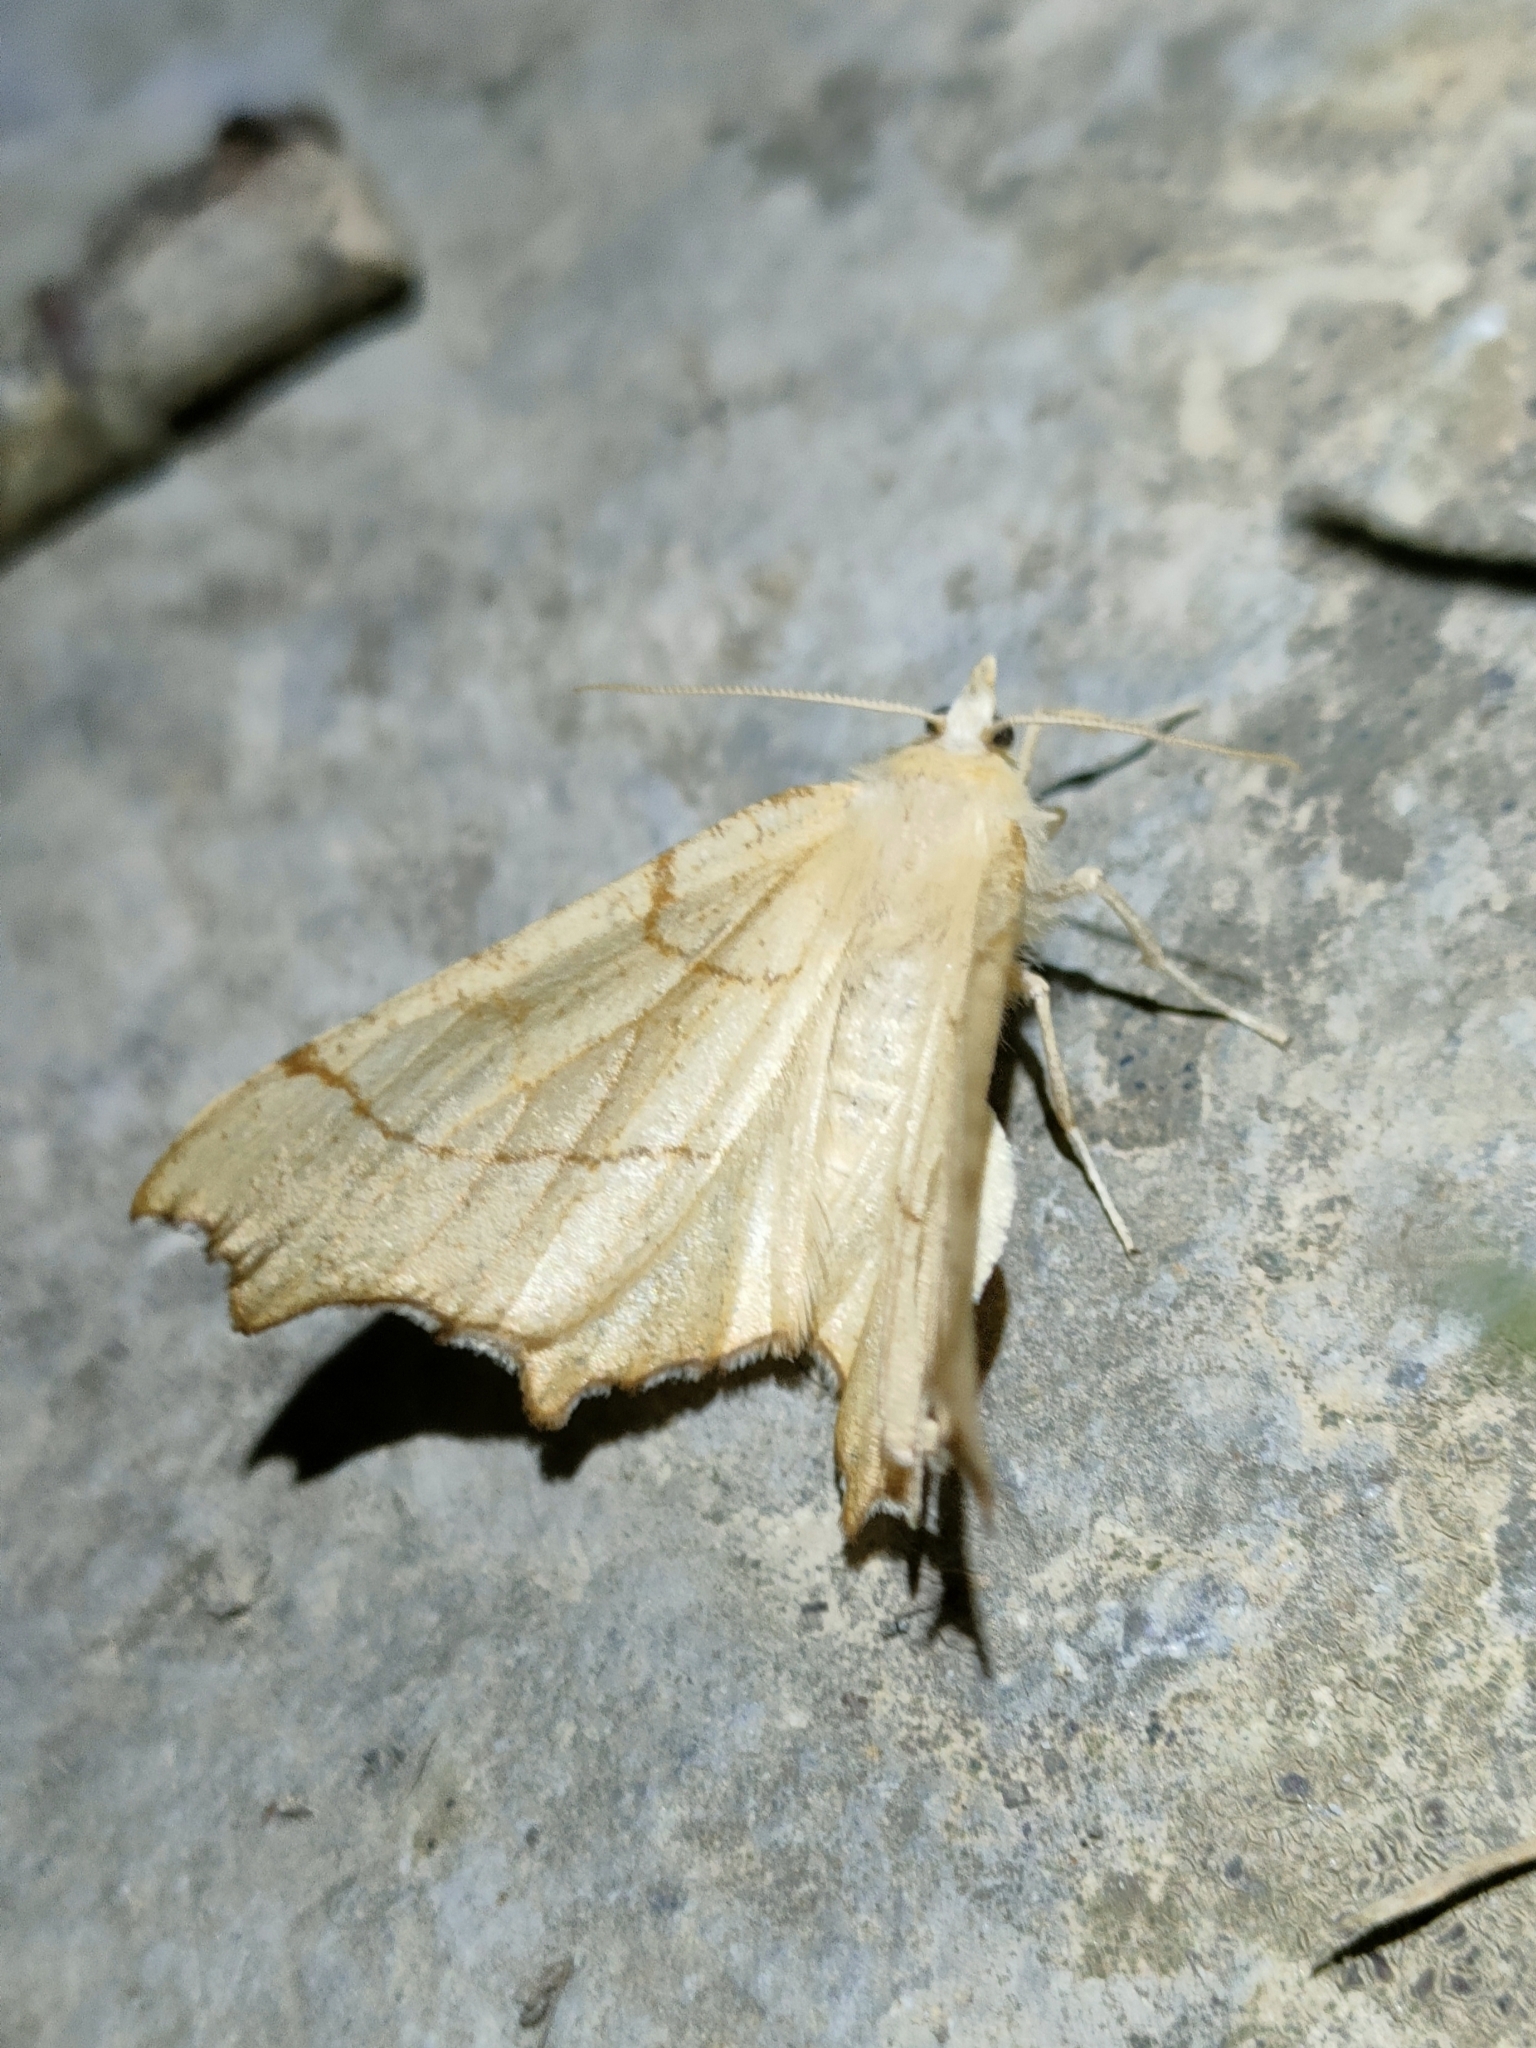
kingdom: Animalia
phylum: Arthropoda
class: Insecta
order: Lepidoptera
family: Geometridae
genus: Ennomos
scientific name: Ennomos quercinaria
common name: August thorn
